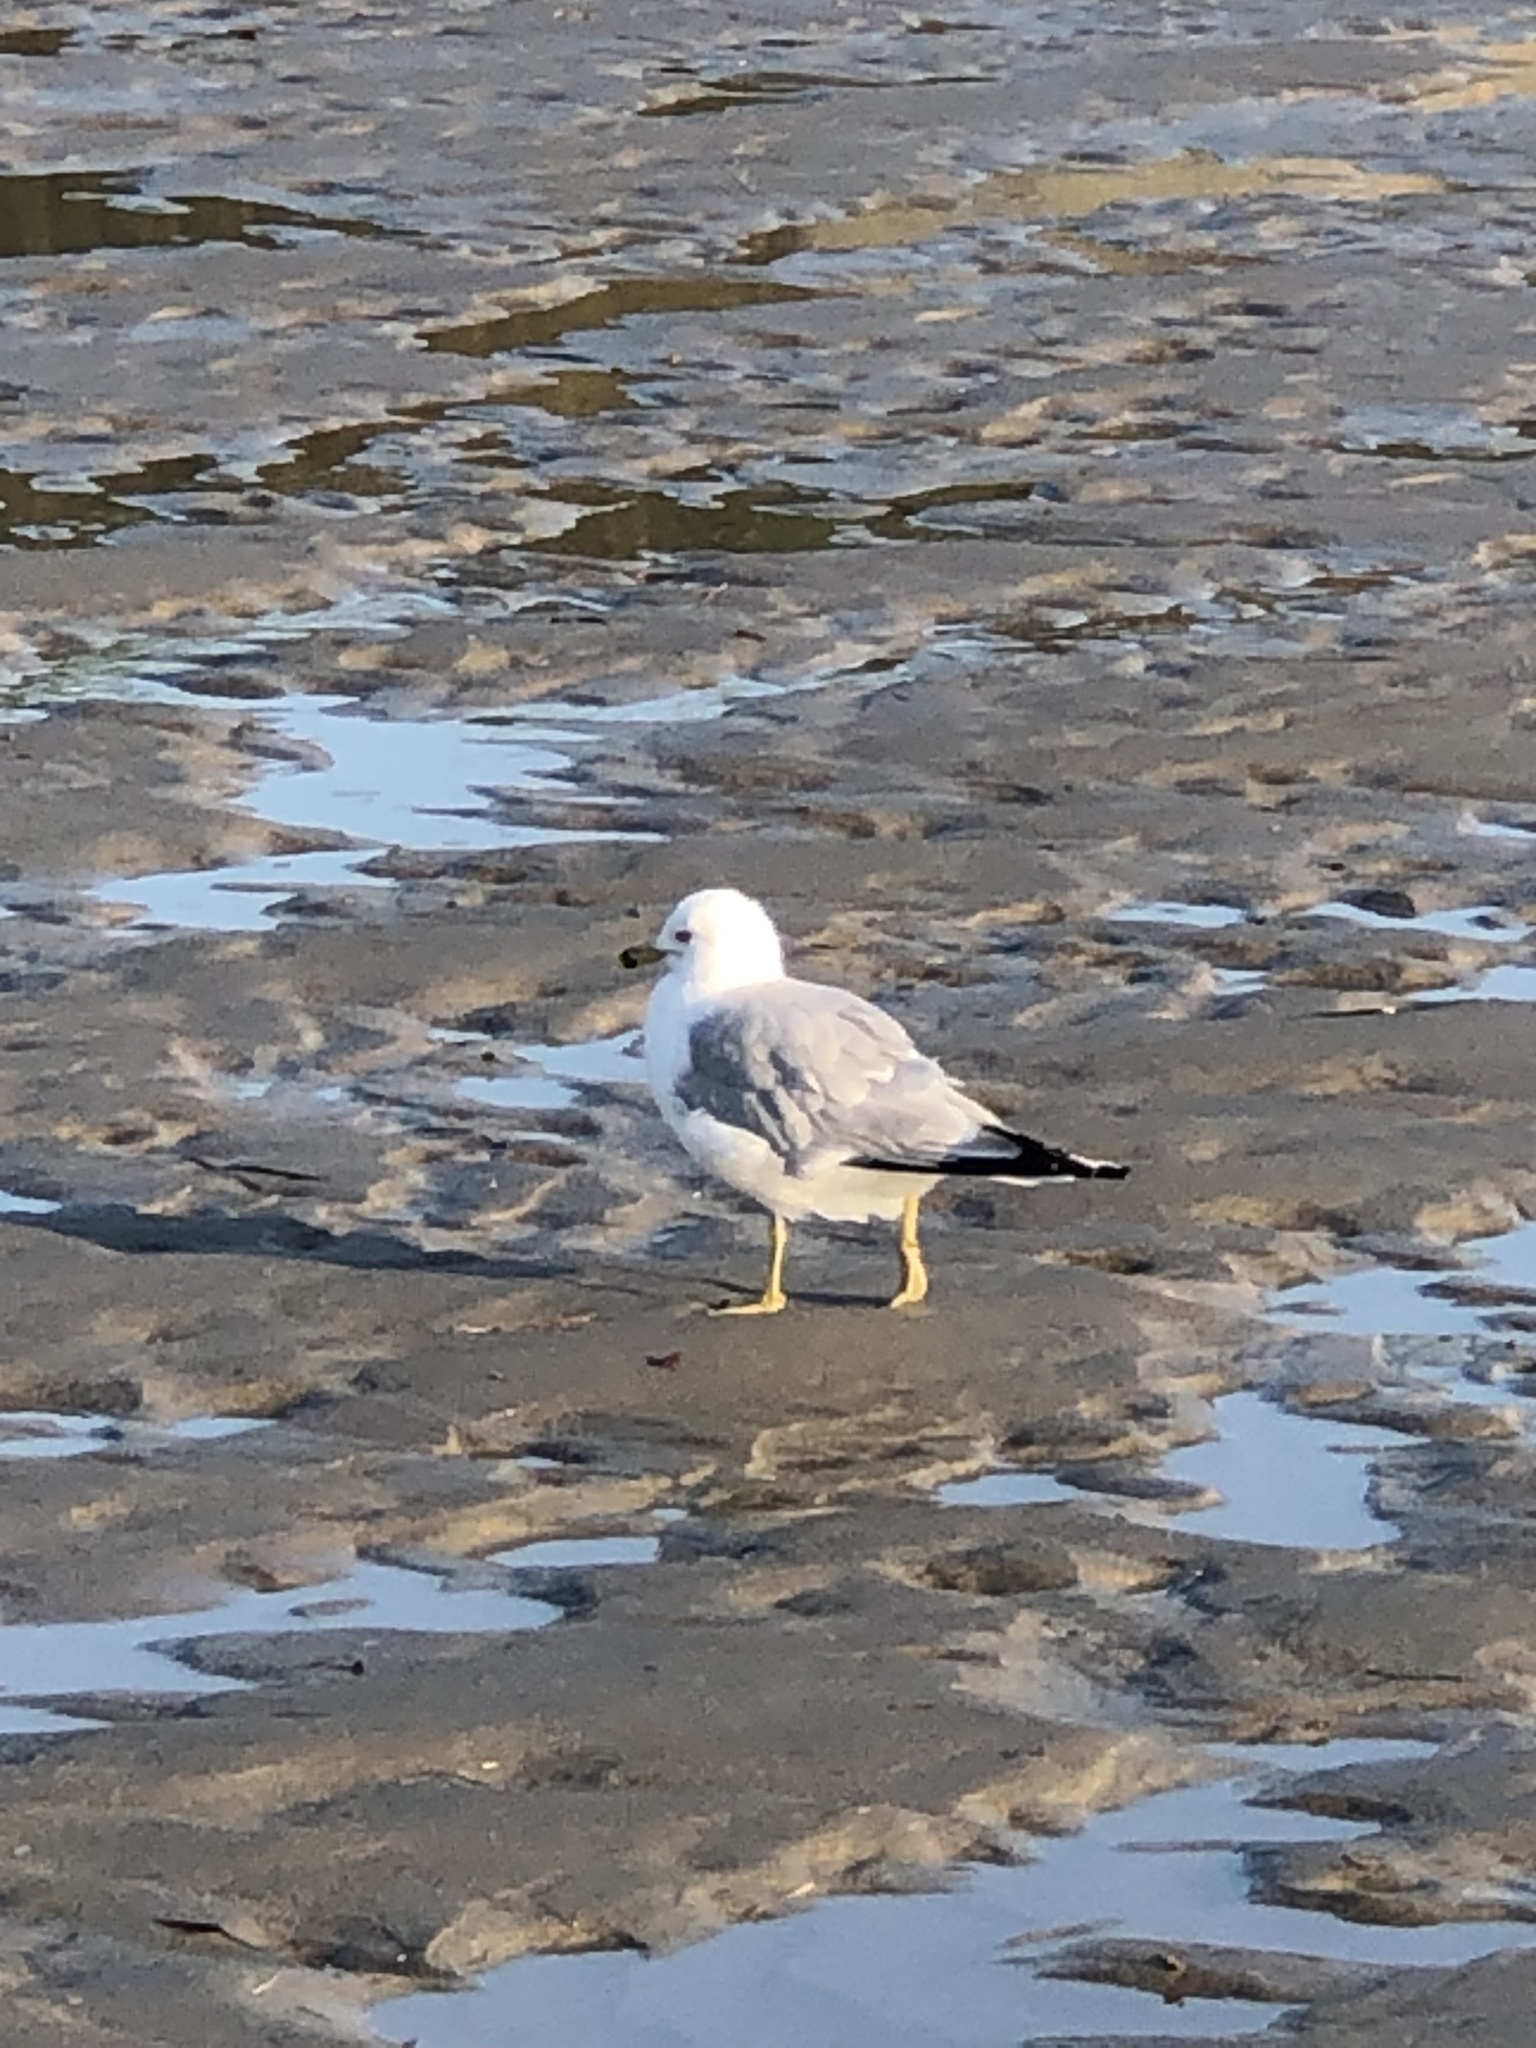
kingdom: Animalia
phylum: Chordata
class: Aves
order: Charadriiformes
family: Laridae
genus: Larus
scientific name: Larus delawarensis
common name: Ring-billed gull
